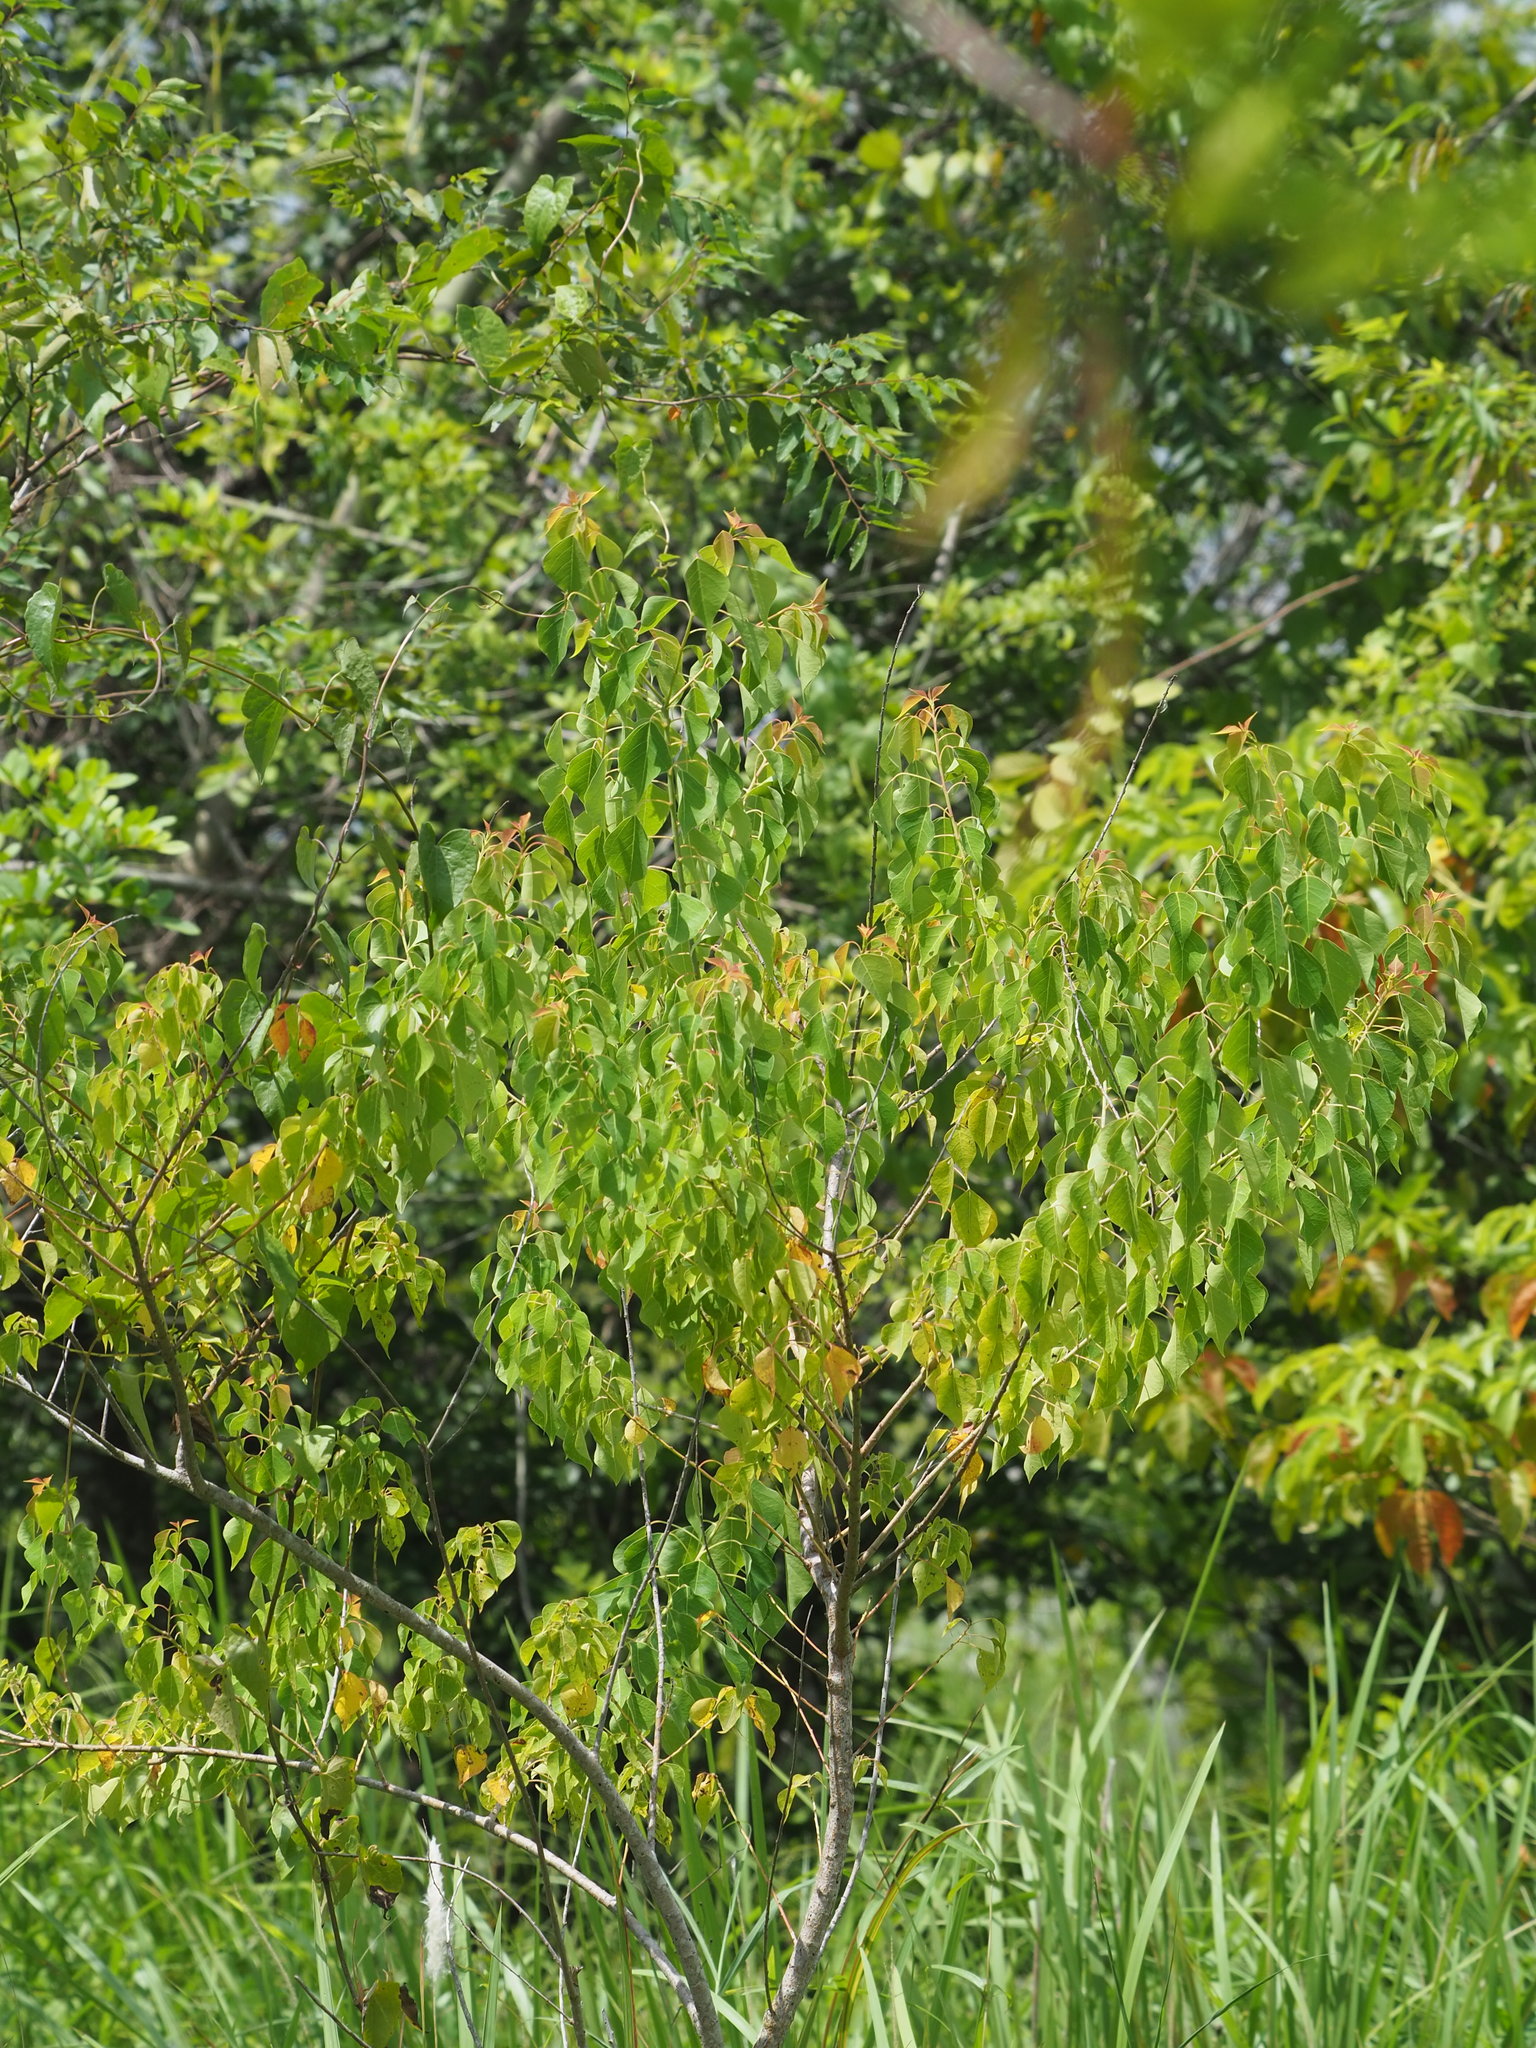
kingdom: Plantae
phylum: Tracheophyta
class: Magnoliopsida
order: Malpighiales
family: Euphorbiaceae
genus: Triadica
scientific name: Triadica sebifera
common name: Chinese tallow
